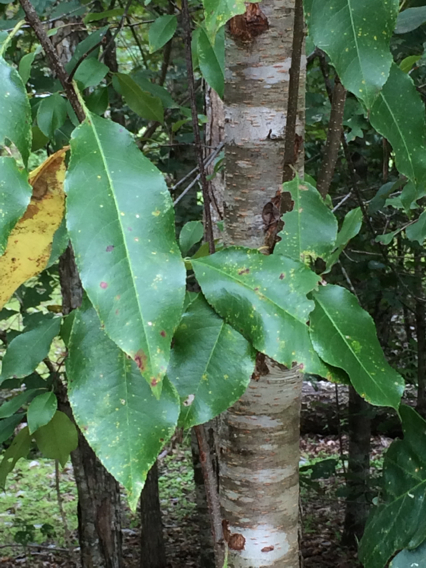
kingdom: Plantae
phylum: Tracheophyta
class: Magnoliopsida
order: Rosales
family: Rosaceae
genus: Prunus
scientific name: Prunus serotina
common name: Black cherry
